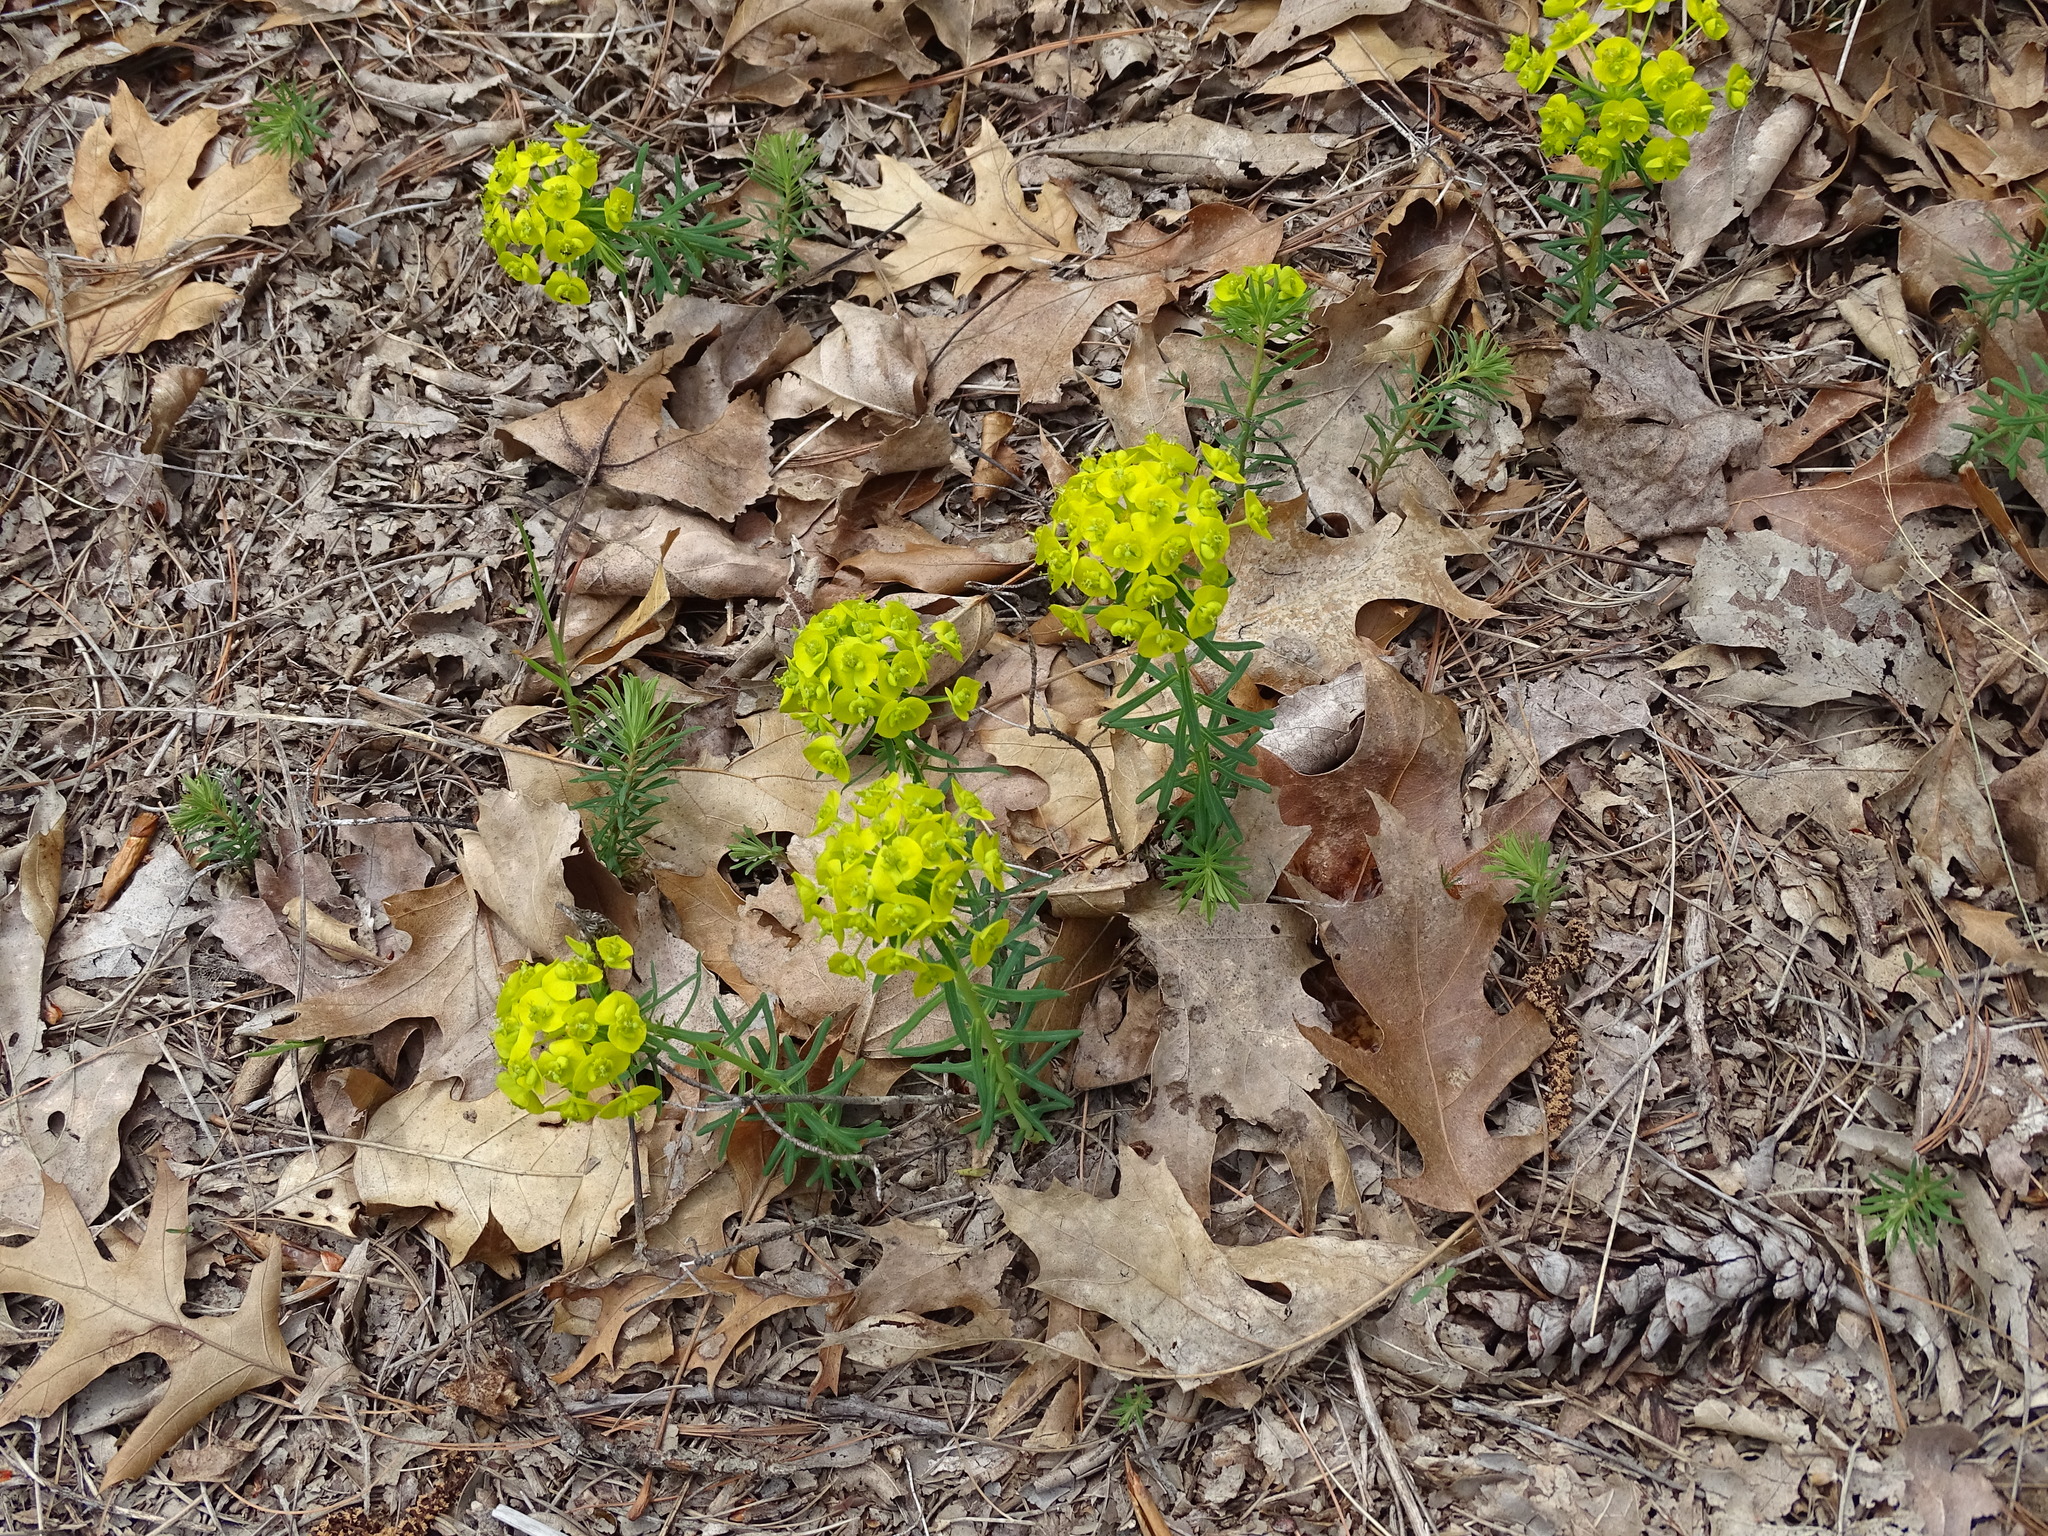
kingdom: Plantae
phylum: Tracheophyta
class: Magnoliopsida
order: Malpighiales
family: Euphorbiaceae
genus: Euphorbia
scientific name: Euphorbia cyparissias
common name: Cypress spurge
